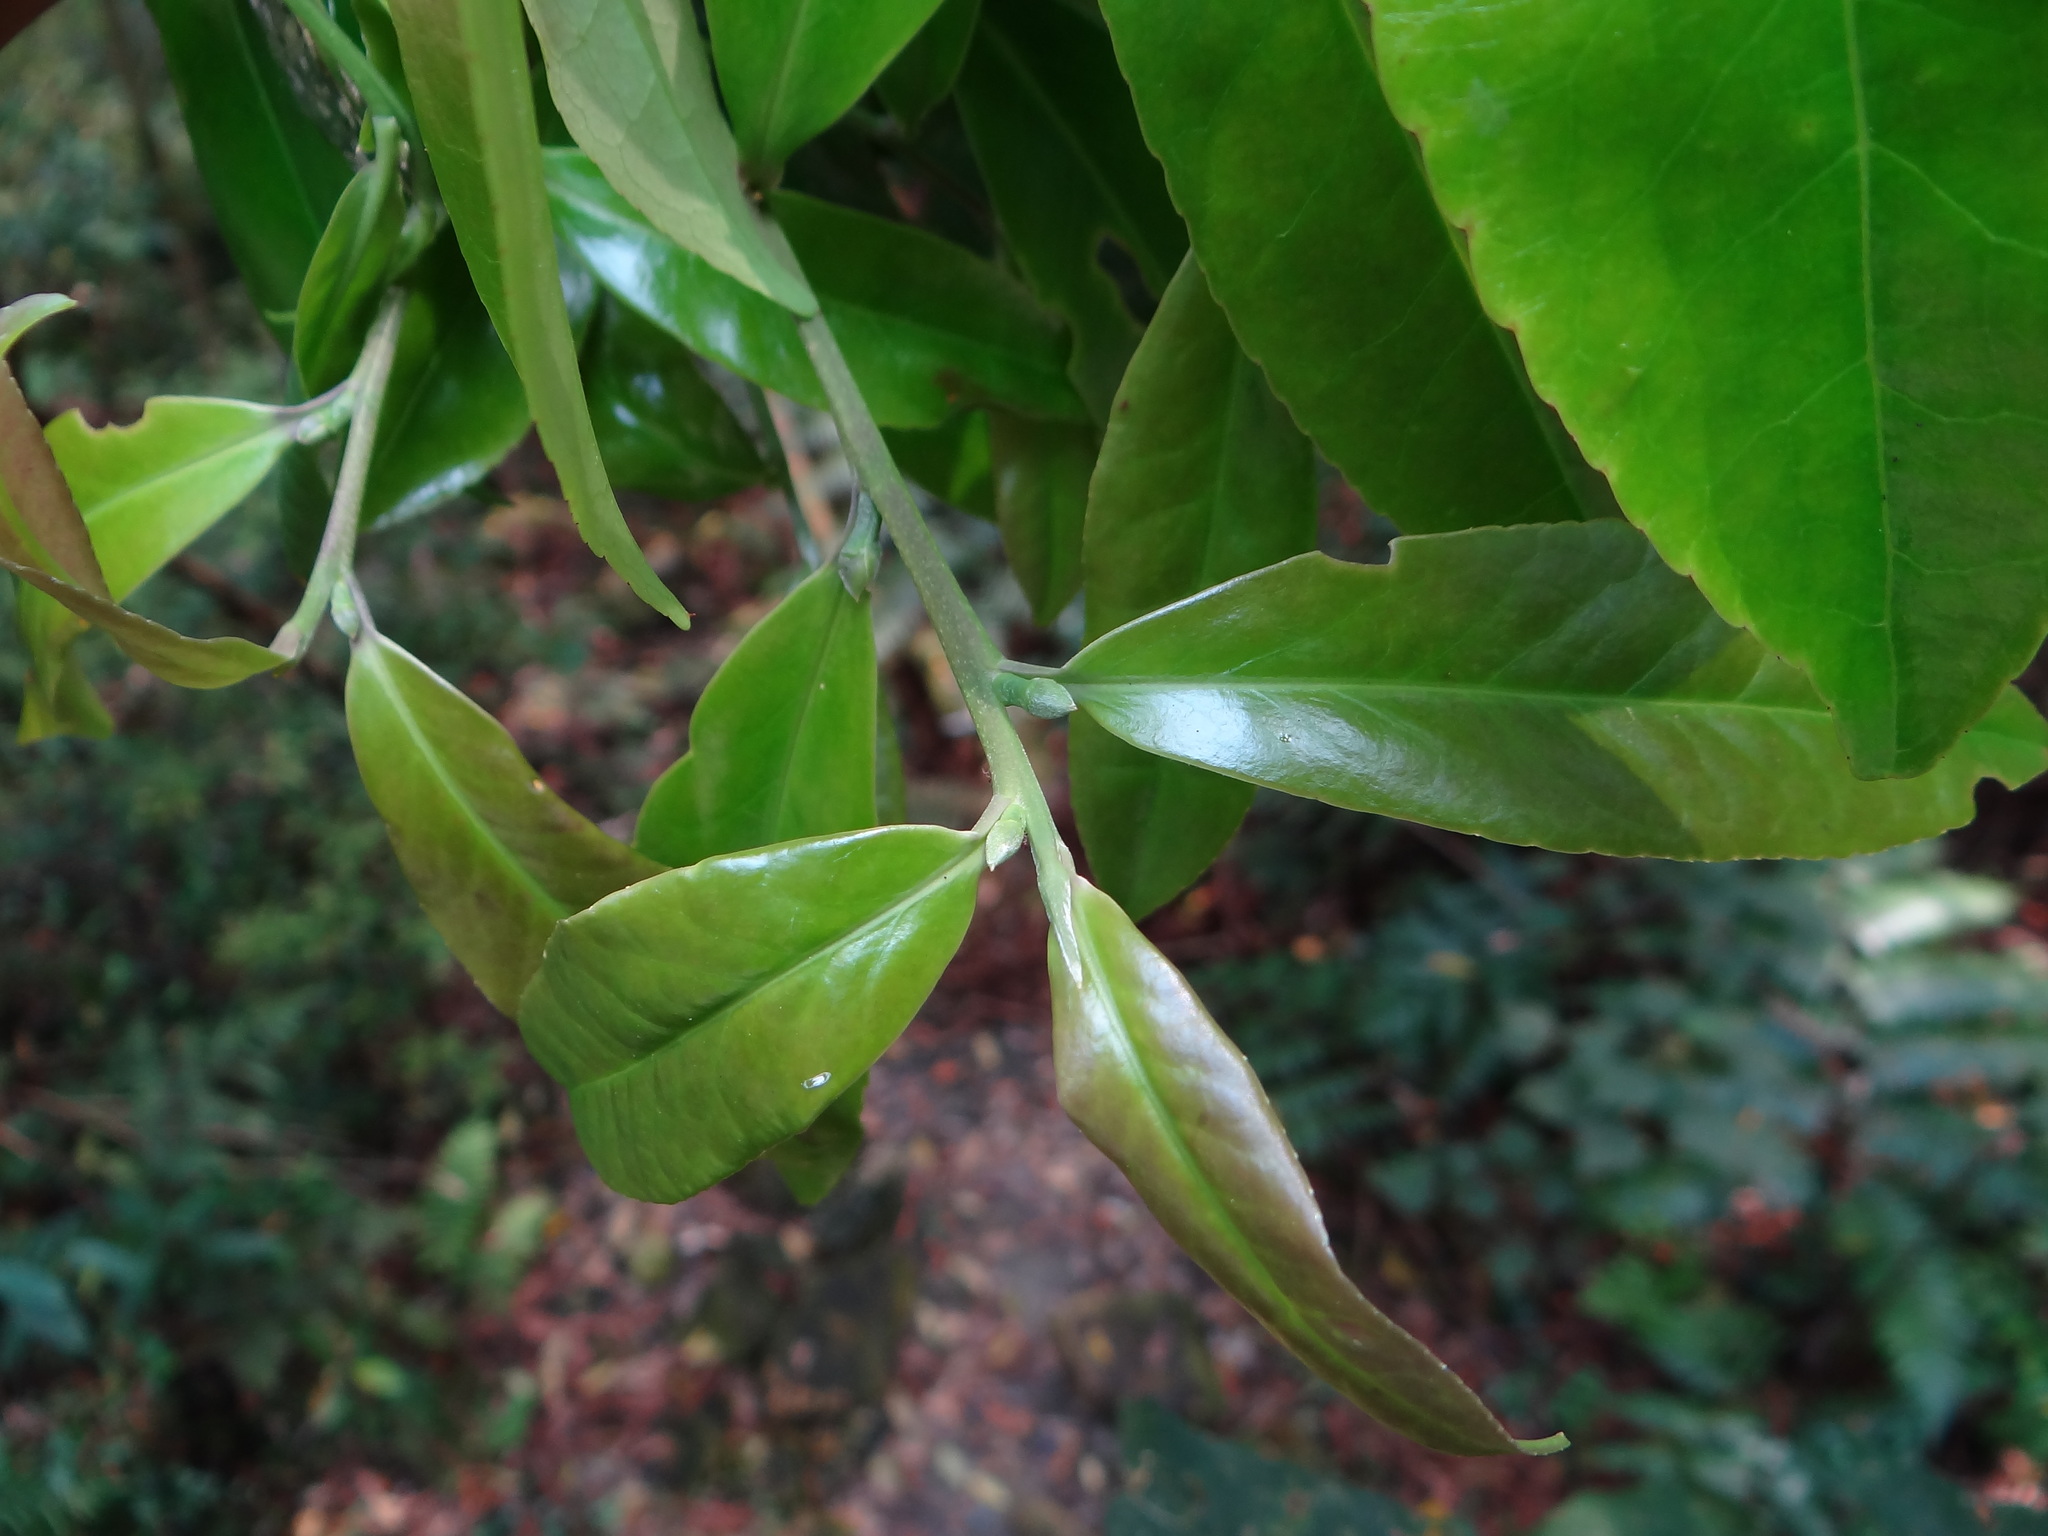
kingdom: Plantae
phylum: Tracheophyta
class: Magnoliopsida
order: Ericales
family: Theaceae
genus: Pyrenaria
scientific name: Pyrenaria microcarpa
